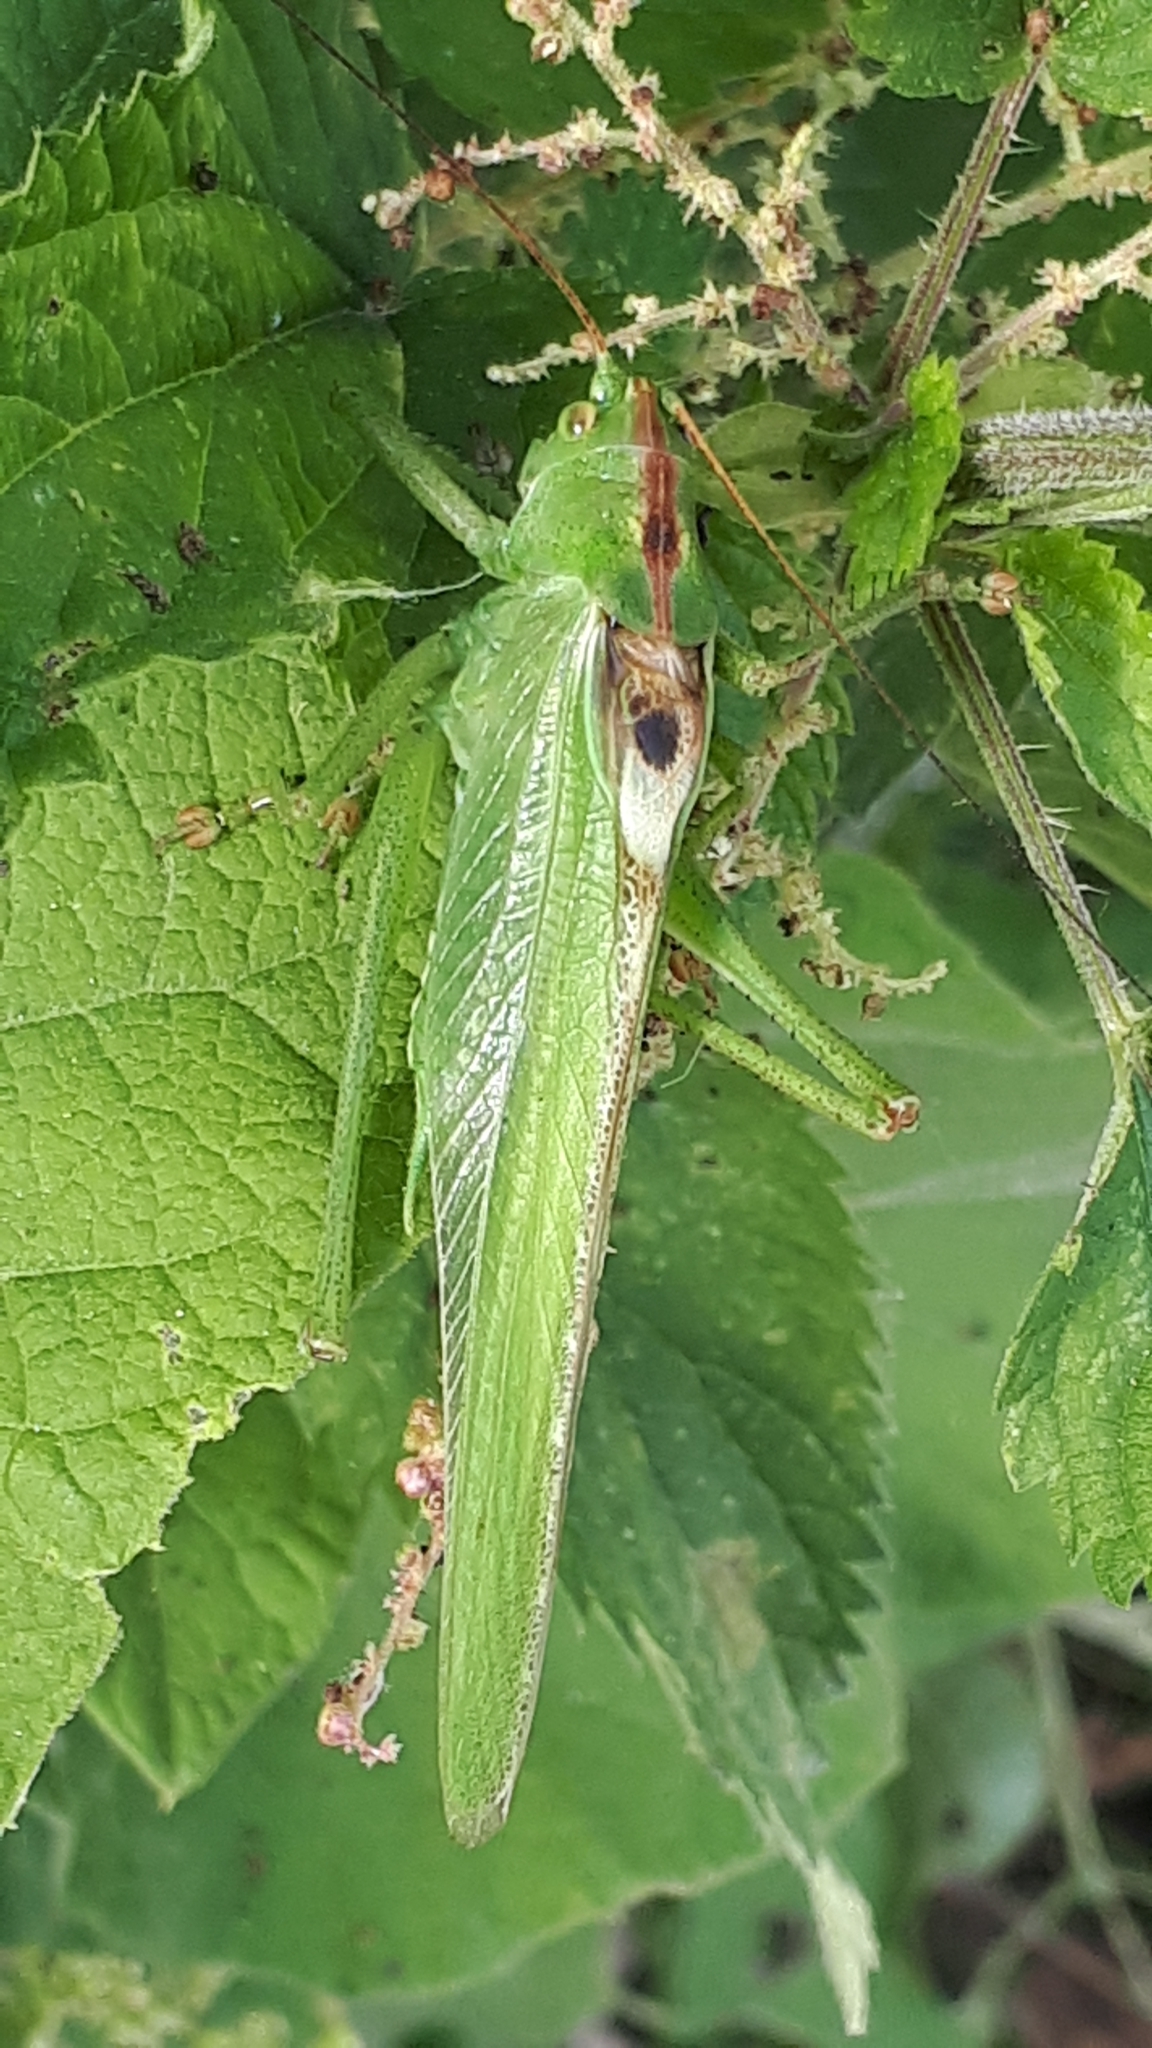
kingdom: Animalia
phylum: Arthropoda
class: Insecta
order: Orthoptera
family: Tettigoniidae
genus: Tettigonia
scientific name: Tettigonia viridissima
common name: Great green bush-cricket
